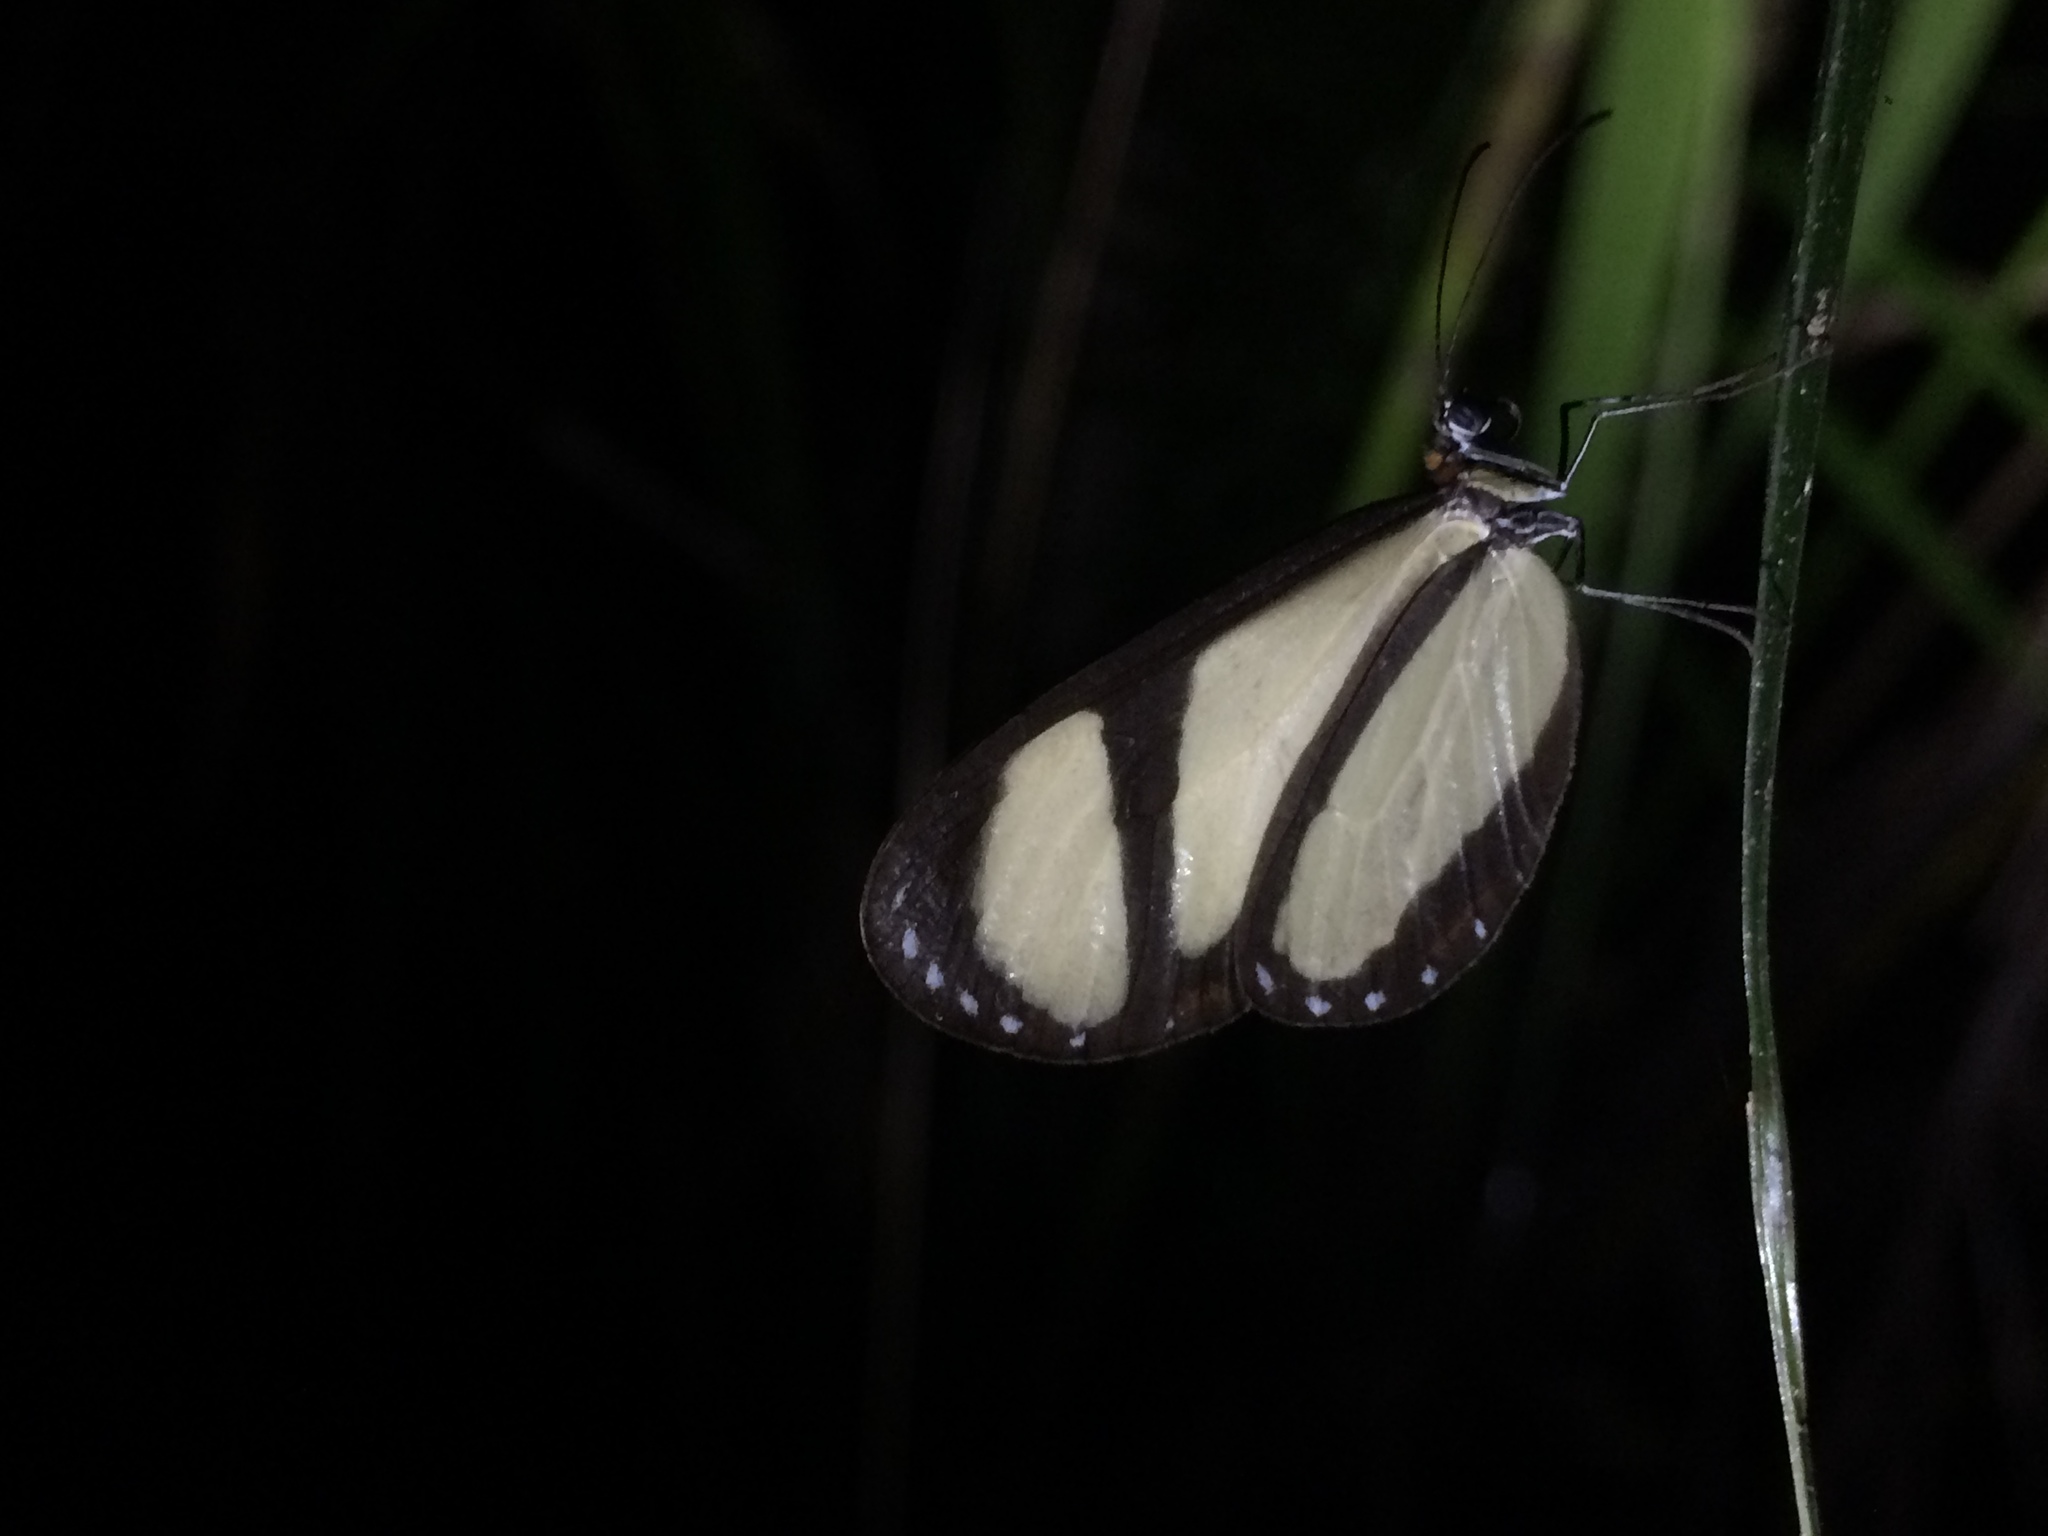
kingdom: Animalia
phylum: Arthropoda
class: Insecta
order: Lepidoptera
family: Nymphalidae
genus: Heteroscada
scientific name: Heteroscada reckia
